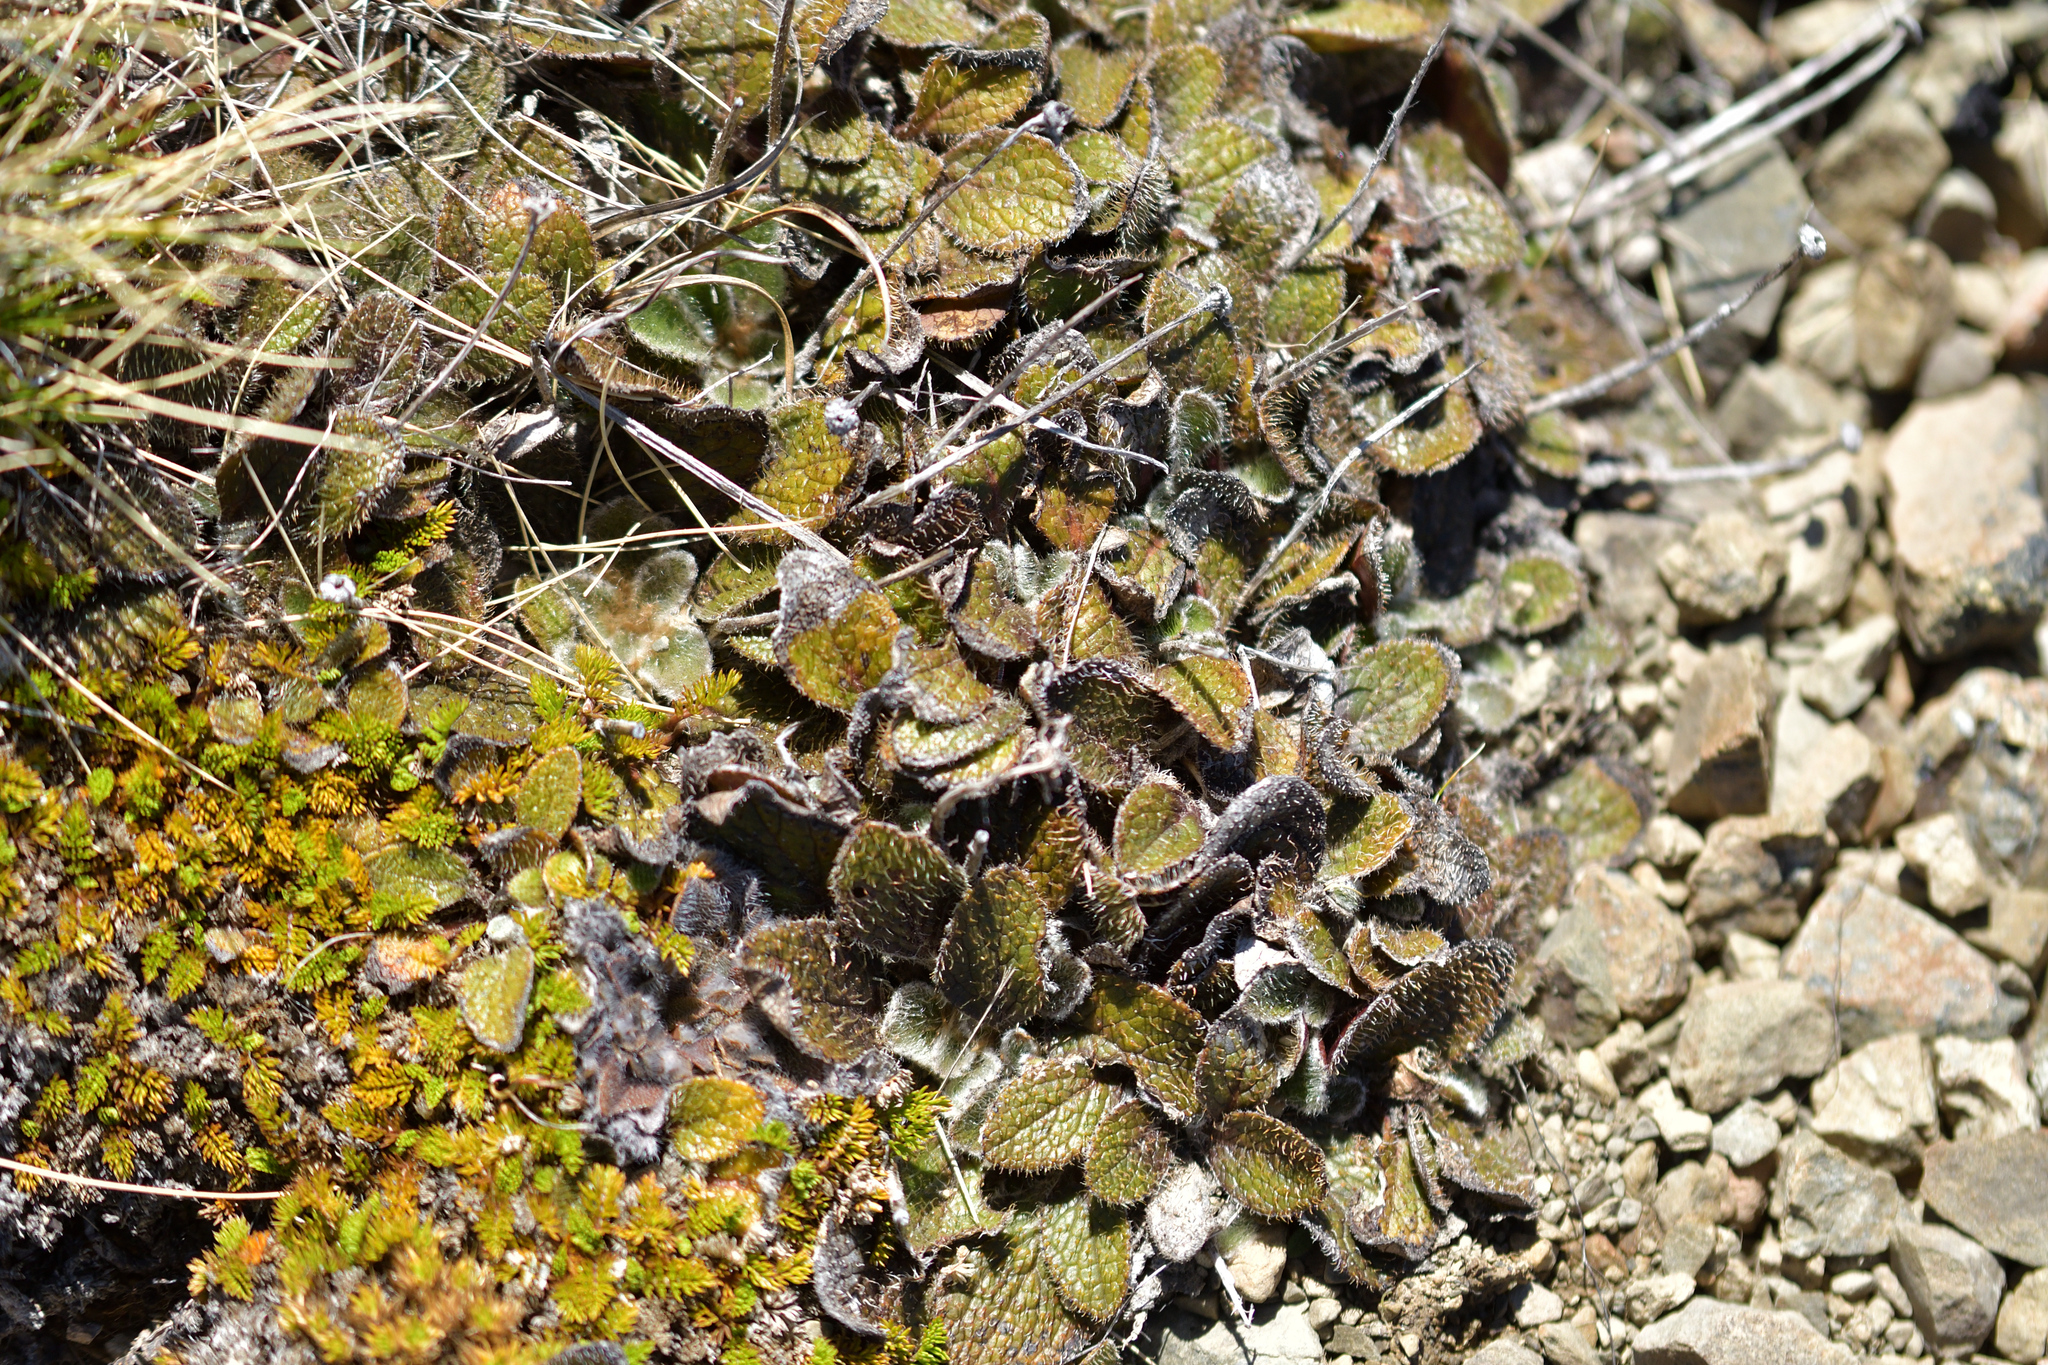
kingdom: Plantae
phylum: Tracheophyta
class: Magnoliopsida
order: Asterales
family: Asteraceae
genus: Brachyglottis
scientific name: Brachyglottis bellidioides
